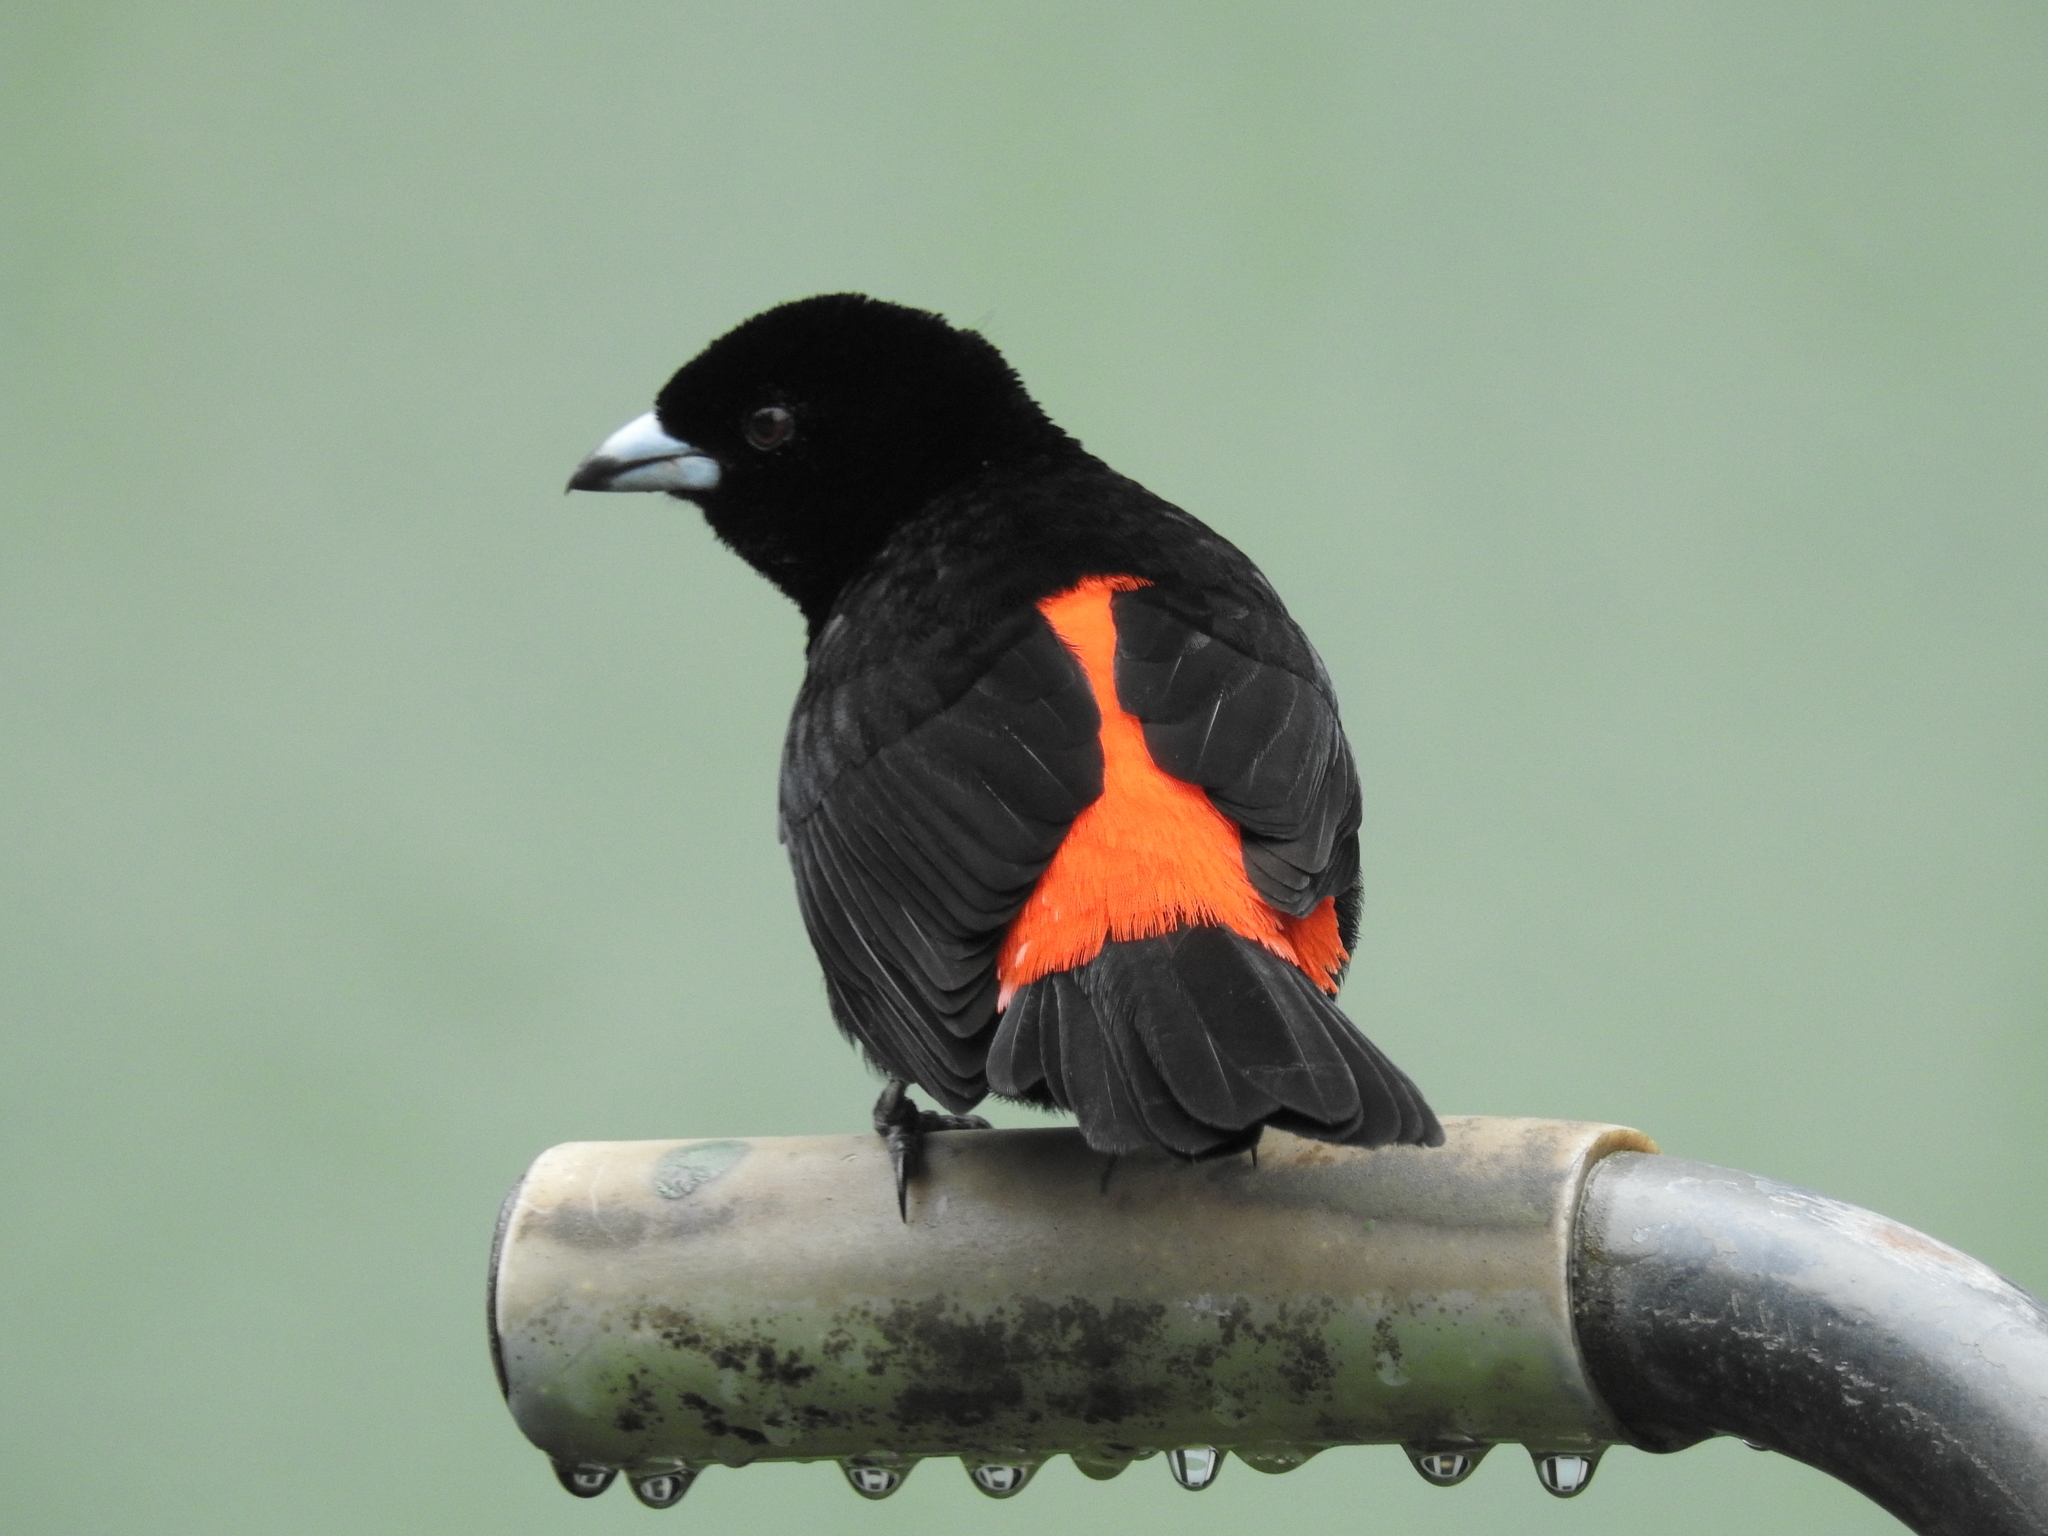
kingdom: Animalia
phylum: Chordata
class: Aves
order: Passeriformes
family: Thraupidae
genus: Ramphocelus
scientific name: Ramphocelus passerinii
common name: Passerini's tanager
